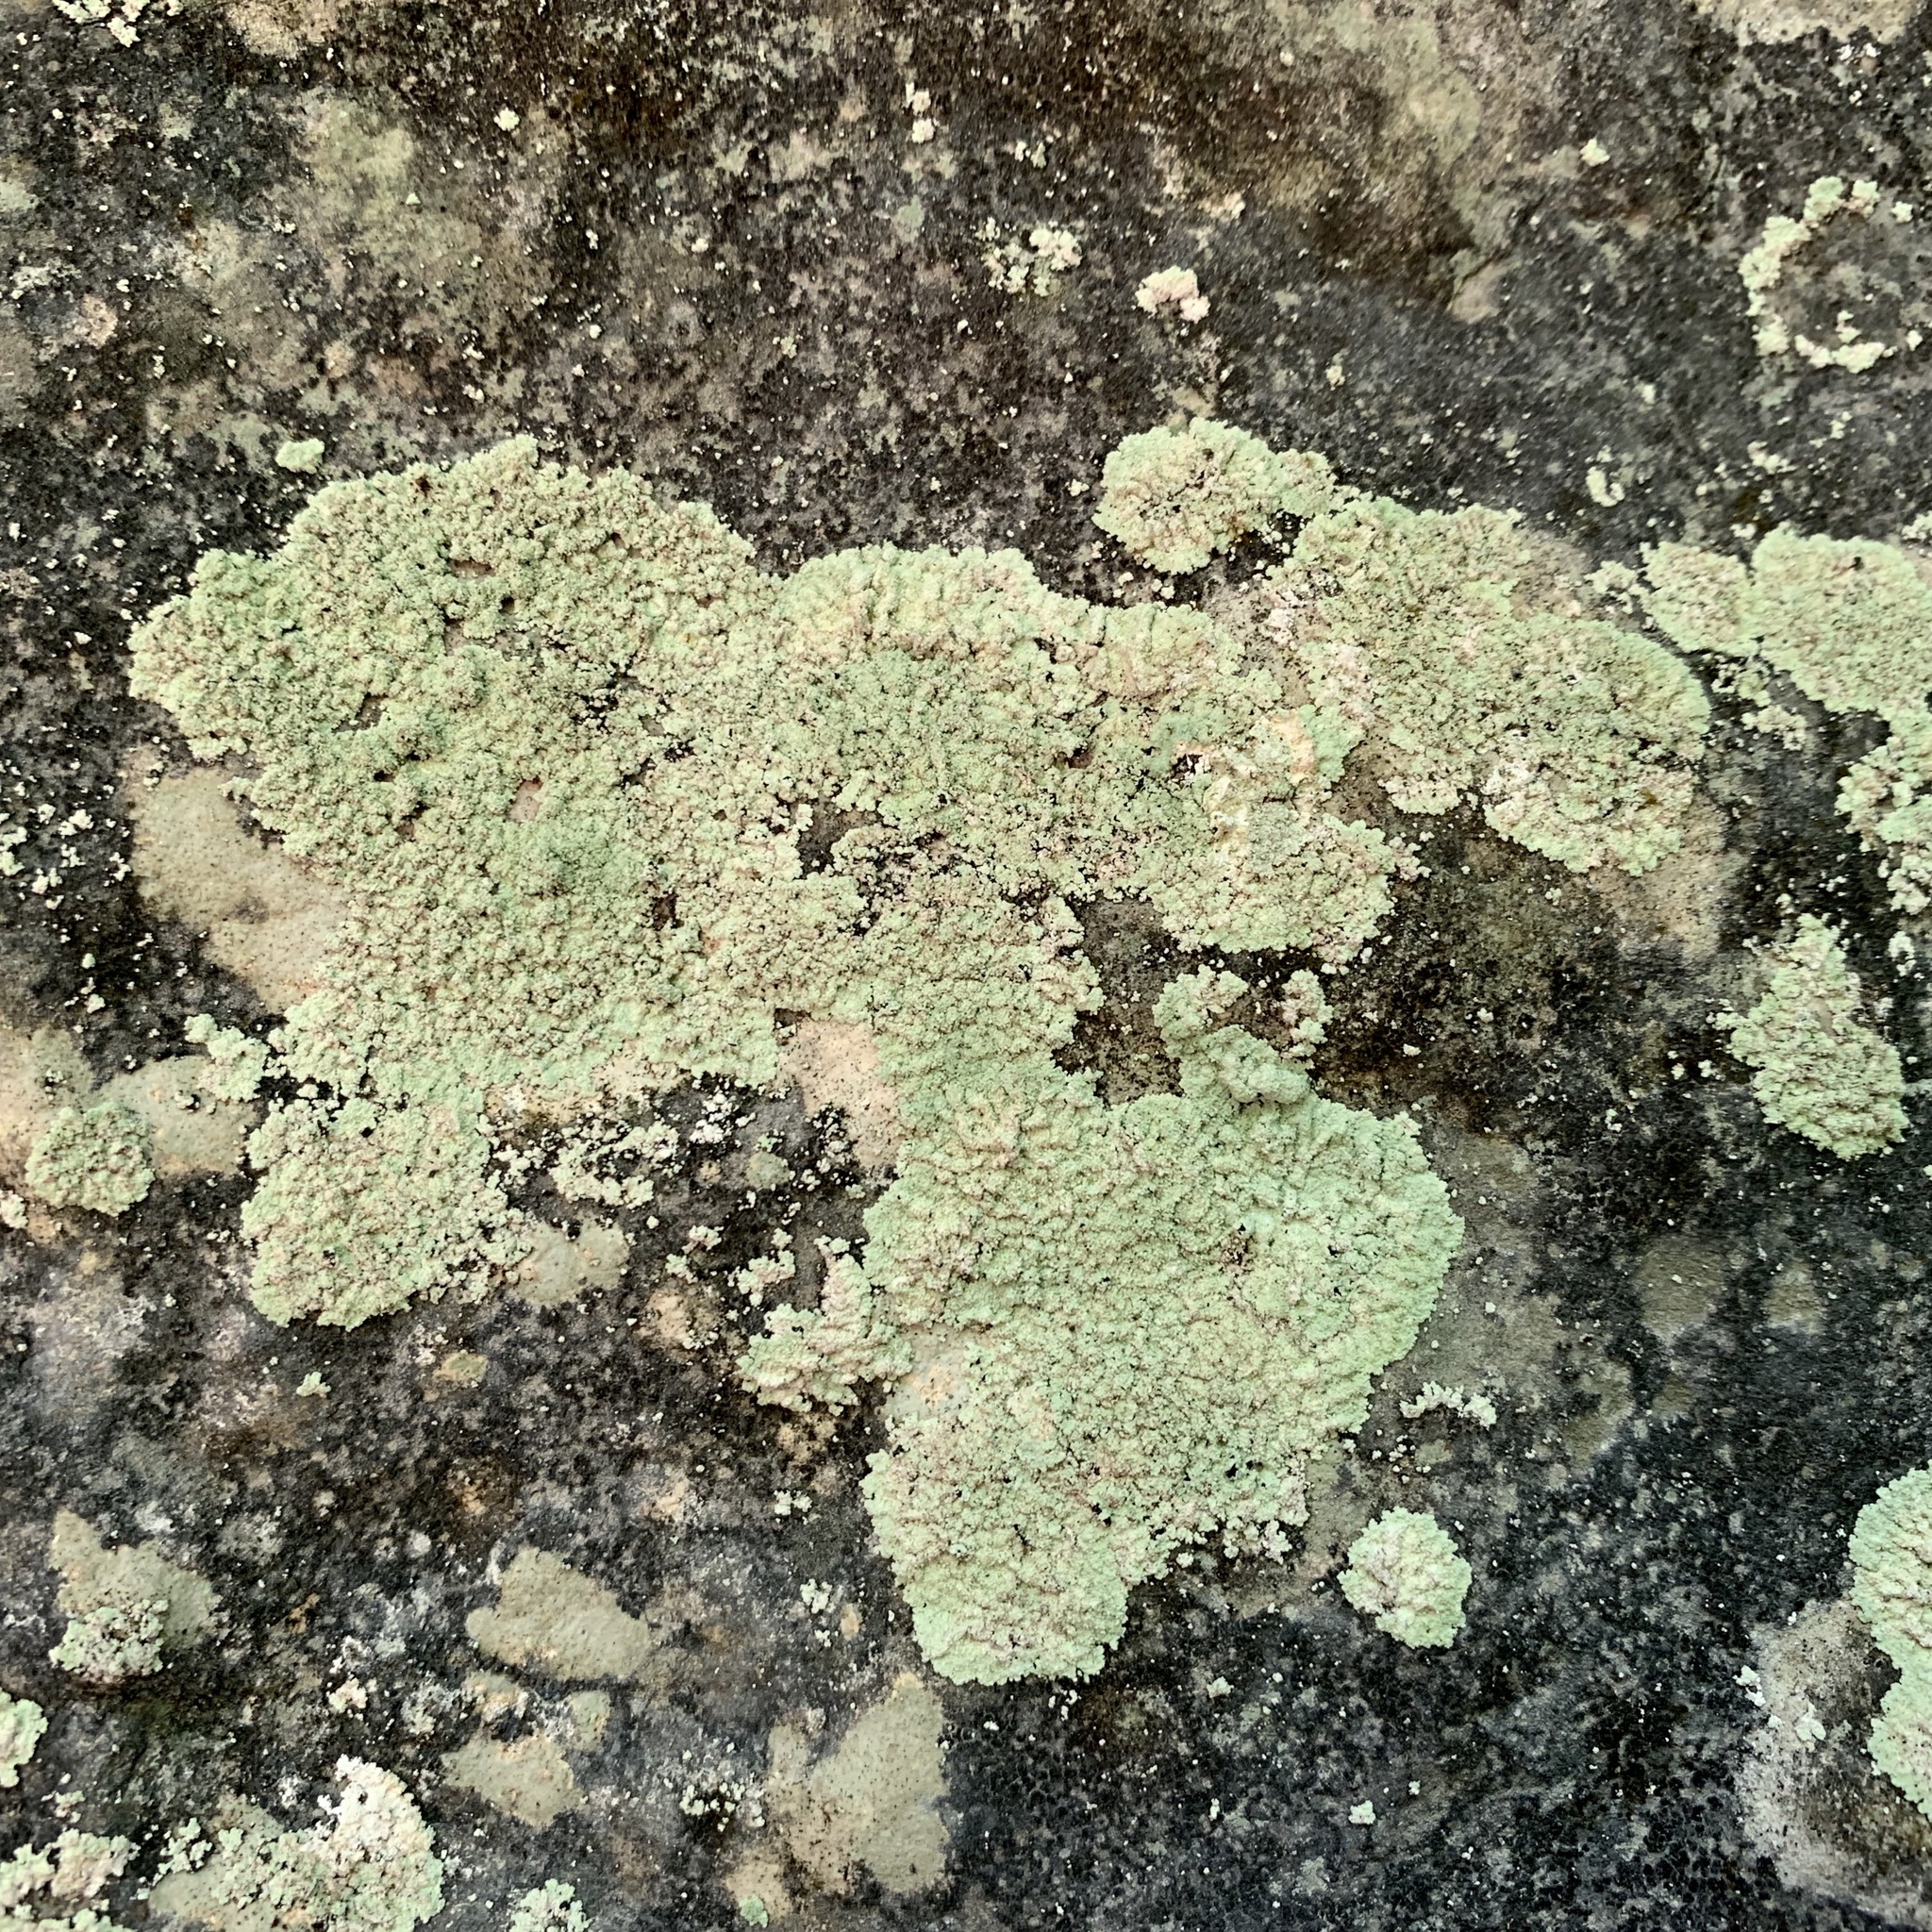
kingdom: Fungi
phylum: Ascomycota
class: Lecanoromycetes
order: Lecanorales
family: Stereocaulaceae
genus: Lepraria
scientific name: Lepraria lobificans
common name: Fluffy dust lichen
